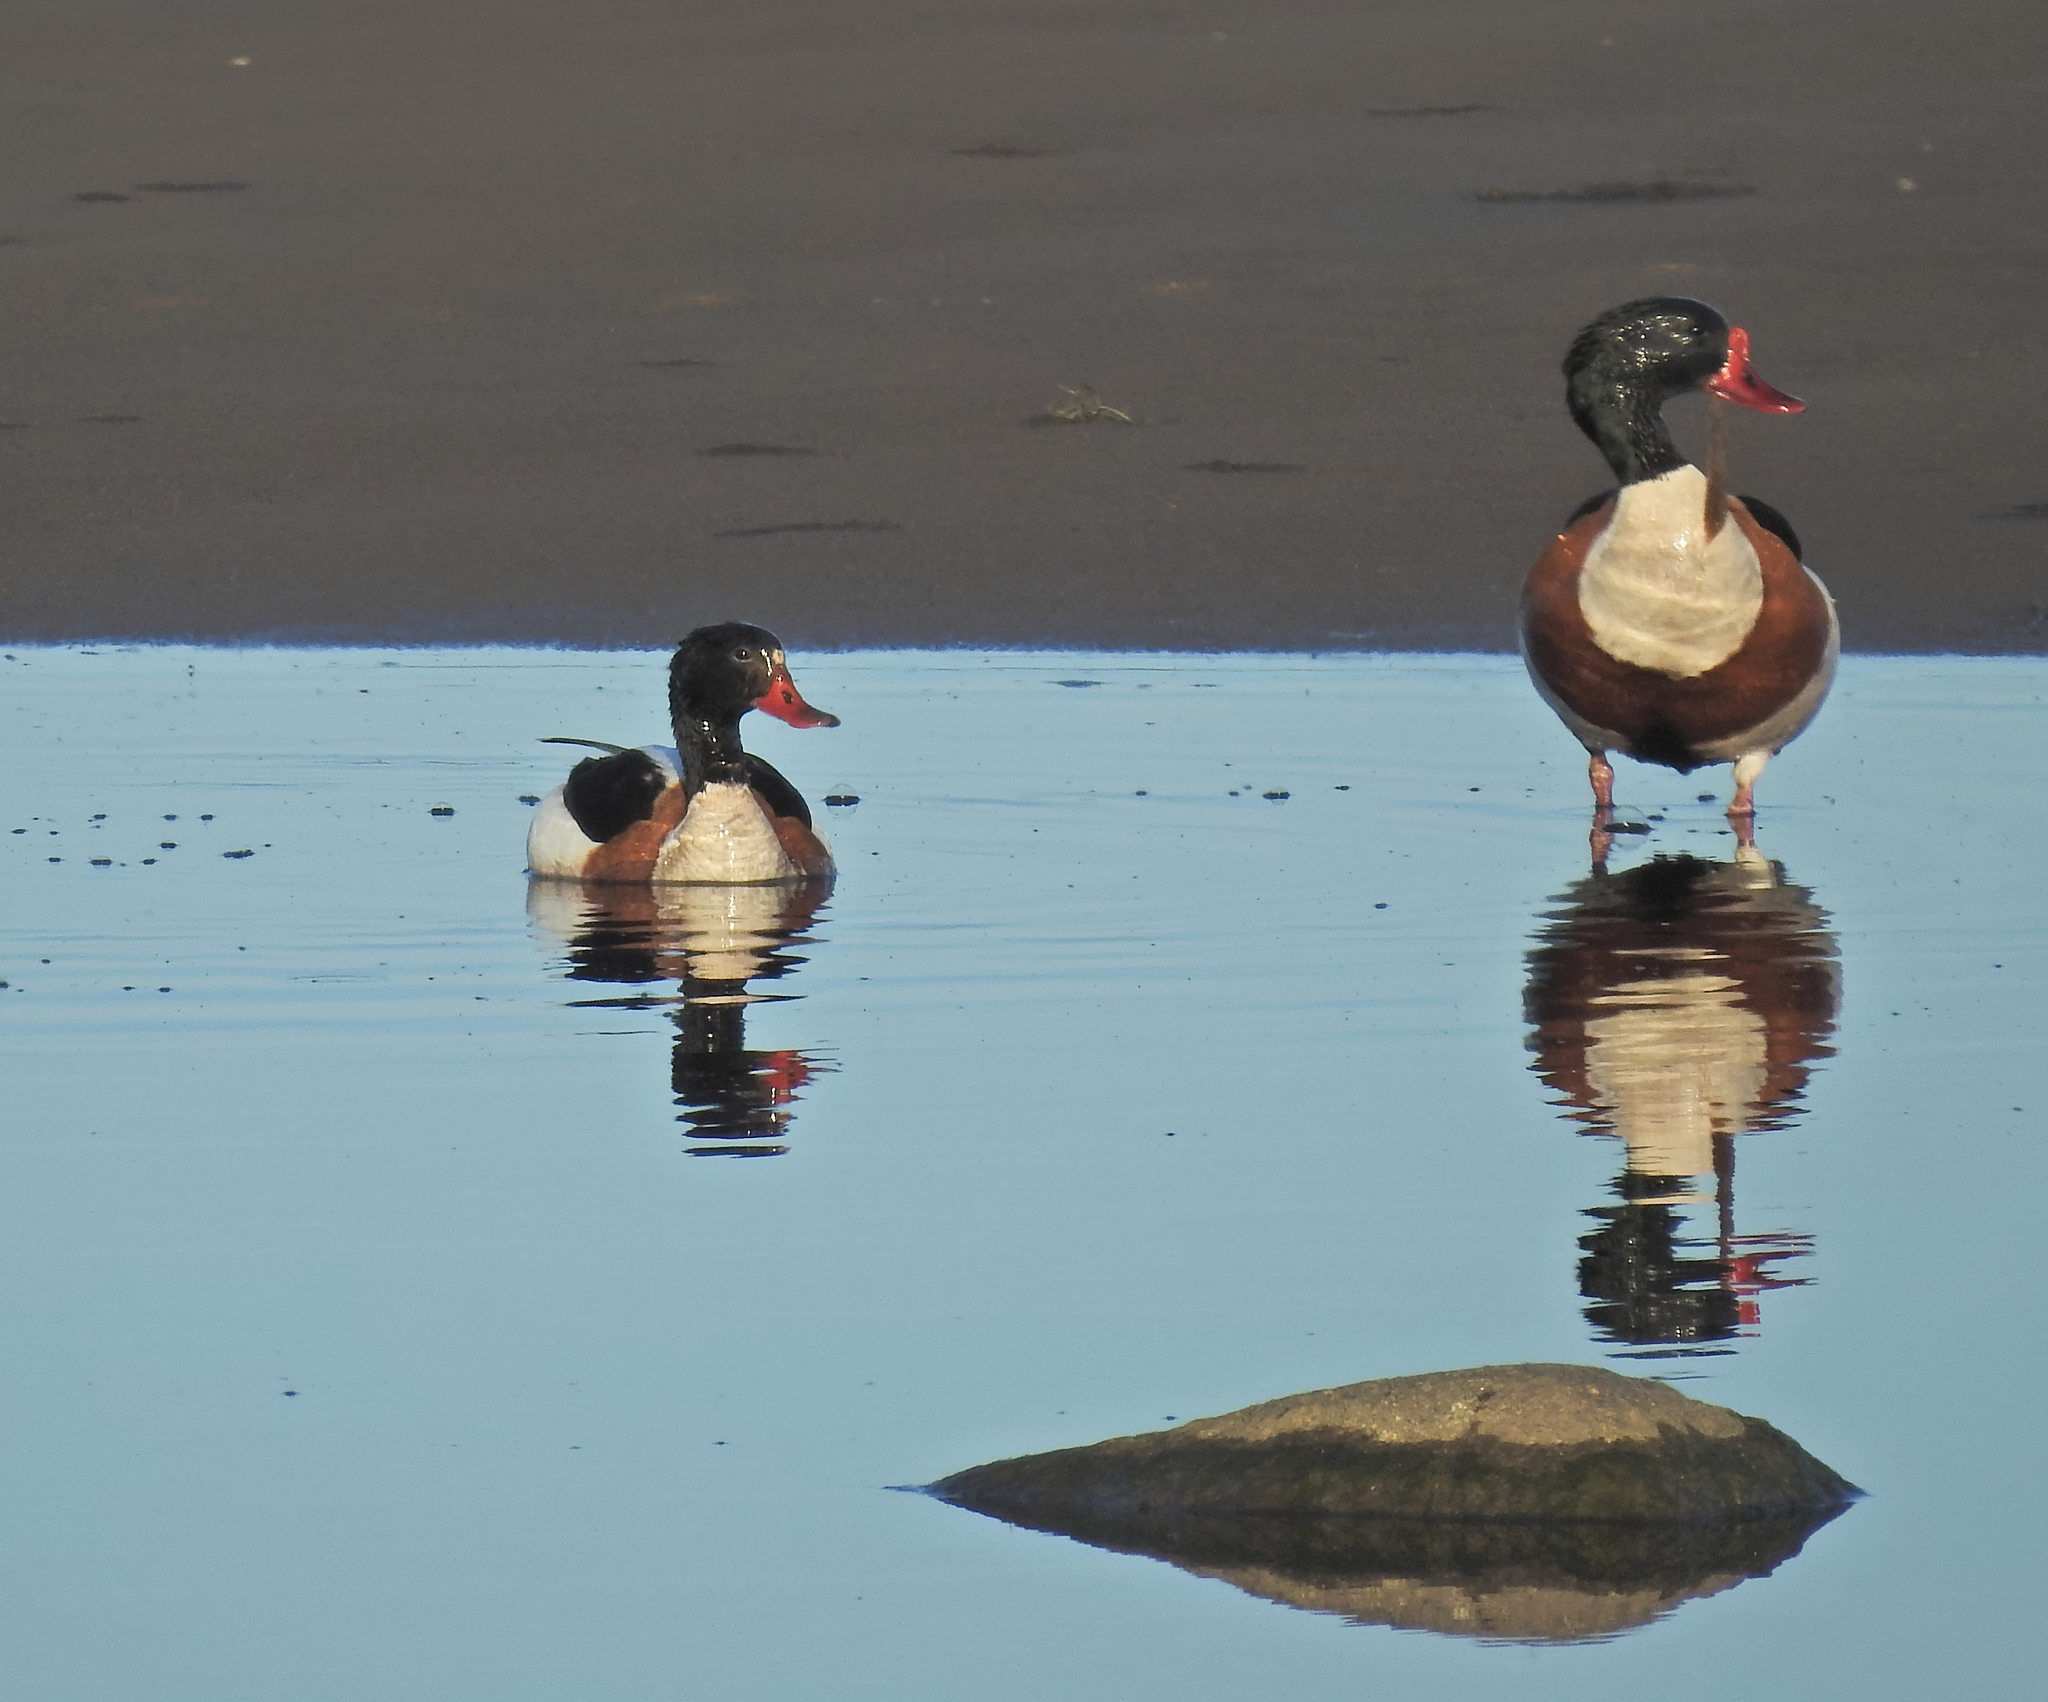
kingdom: Animalia
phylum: Chordata
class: Aves
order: Anseriformes
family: Anatidae
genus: Tadorna
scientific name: Tadorna tadorna
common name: Common shelduck
